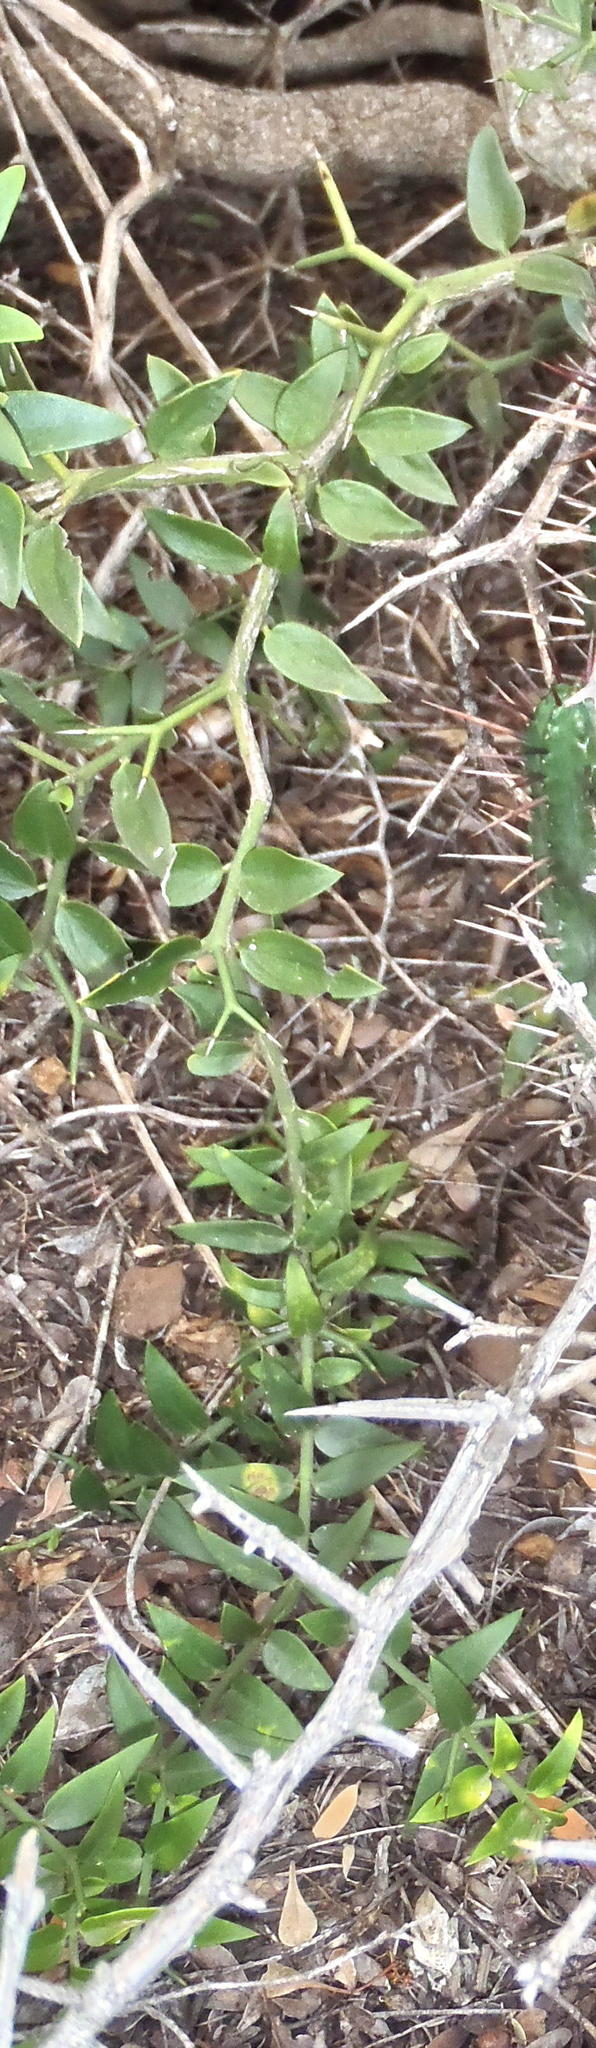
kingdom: Plantae
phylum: Tracheophyta
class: Magnoliopsida
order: Gentianales
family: Apocynaceae
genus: Carissa
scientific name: Carissa haematocarpa
